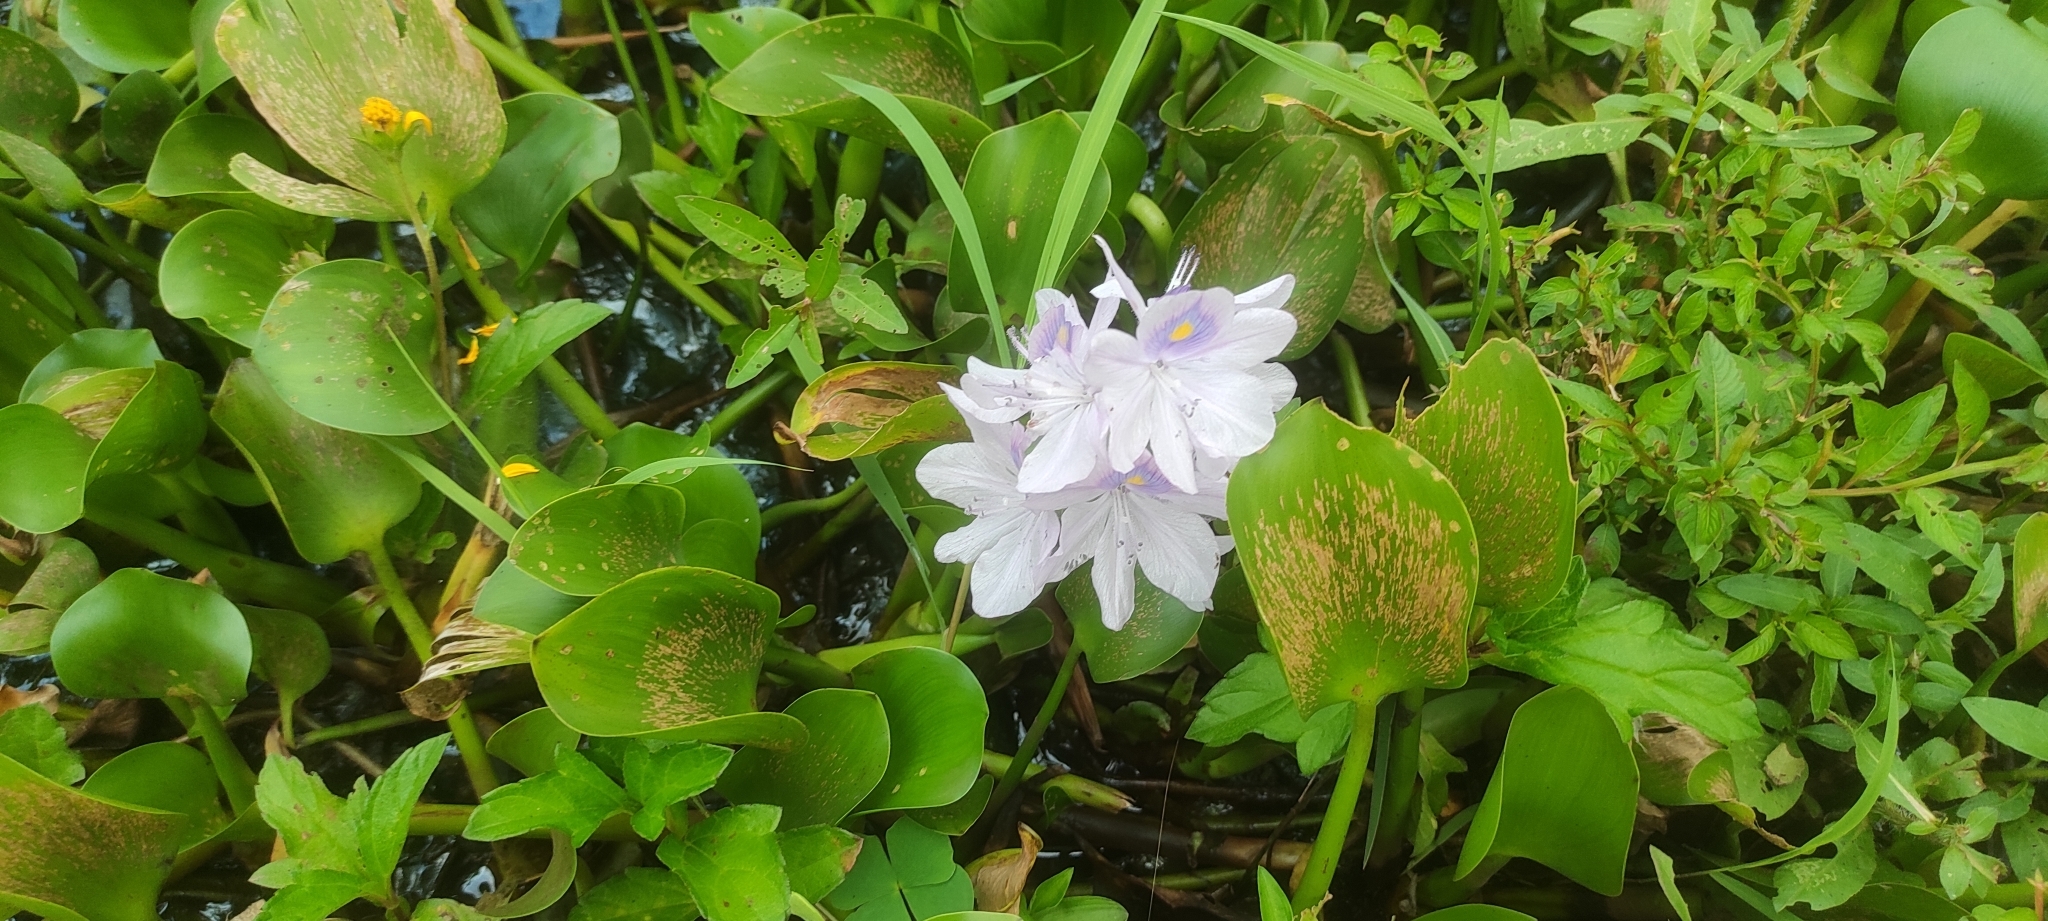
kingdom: Plantae
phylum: Tracheophyta
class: Liliopsida
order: Commelinales
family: Pontederiaceae
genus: Pontederia
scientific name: Pontederia crassipes
